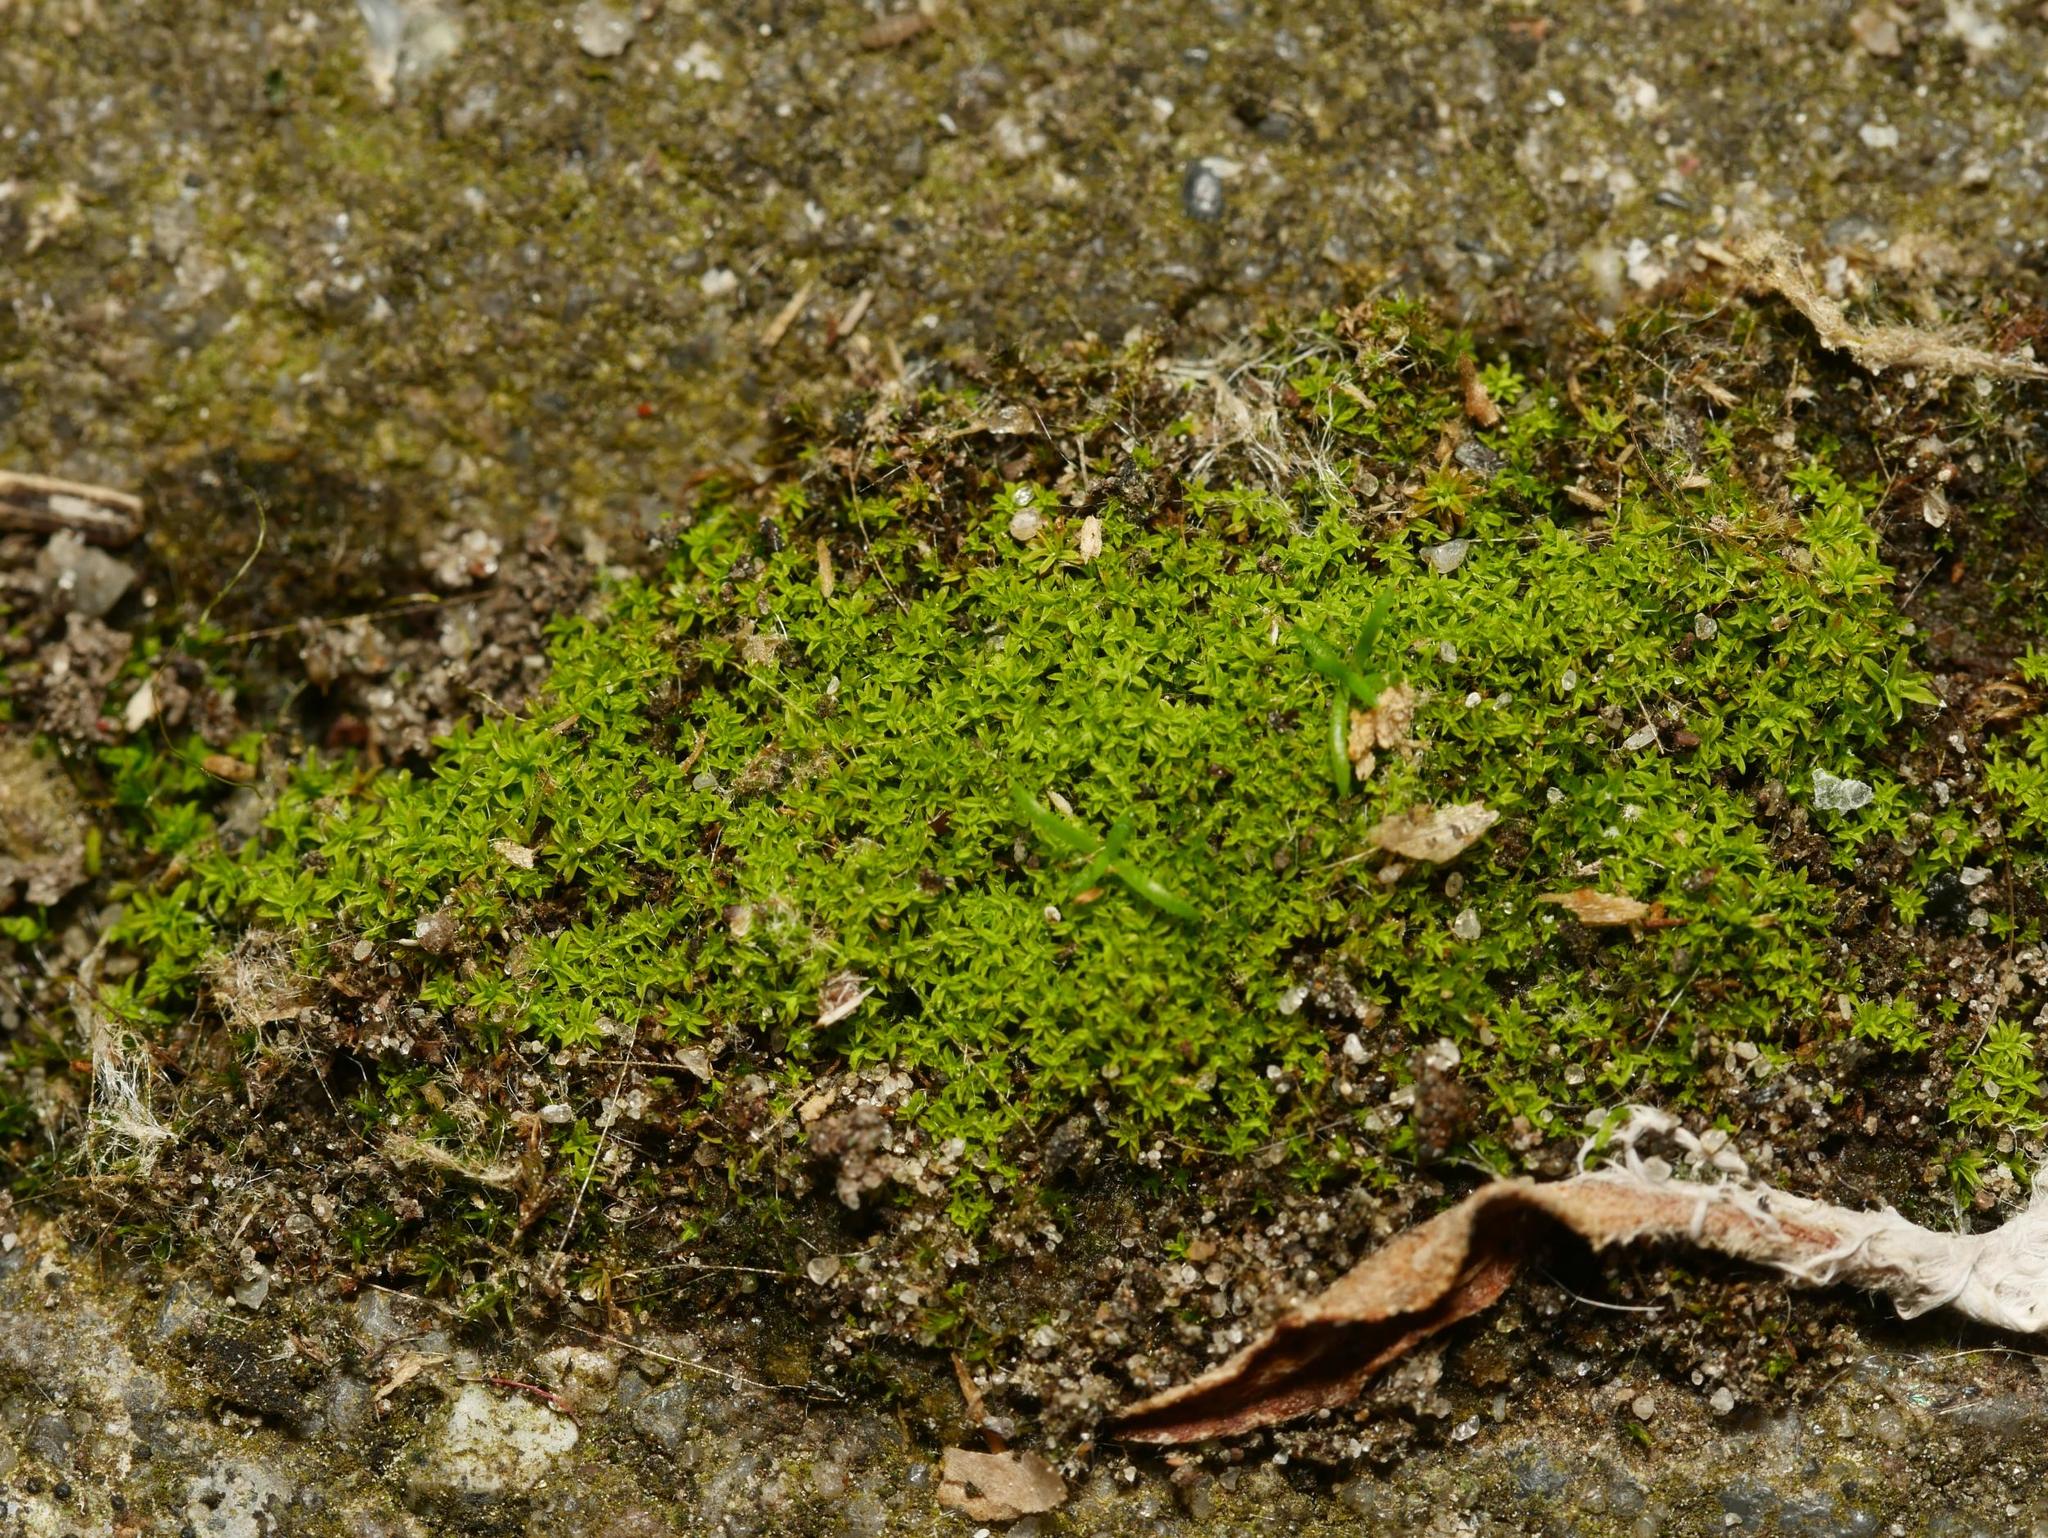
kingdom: Plantae
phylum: Bryophyta
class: Bryopsida
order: Pottiales
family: Pottiaceae
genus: Barbula
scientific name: Barbula unguiculata
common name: Prickly beard moss
